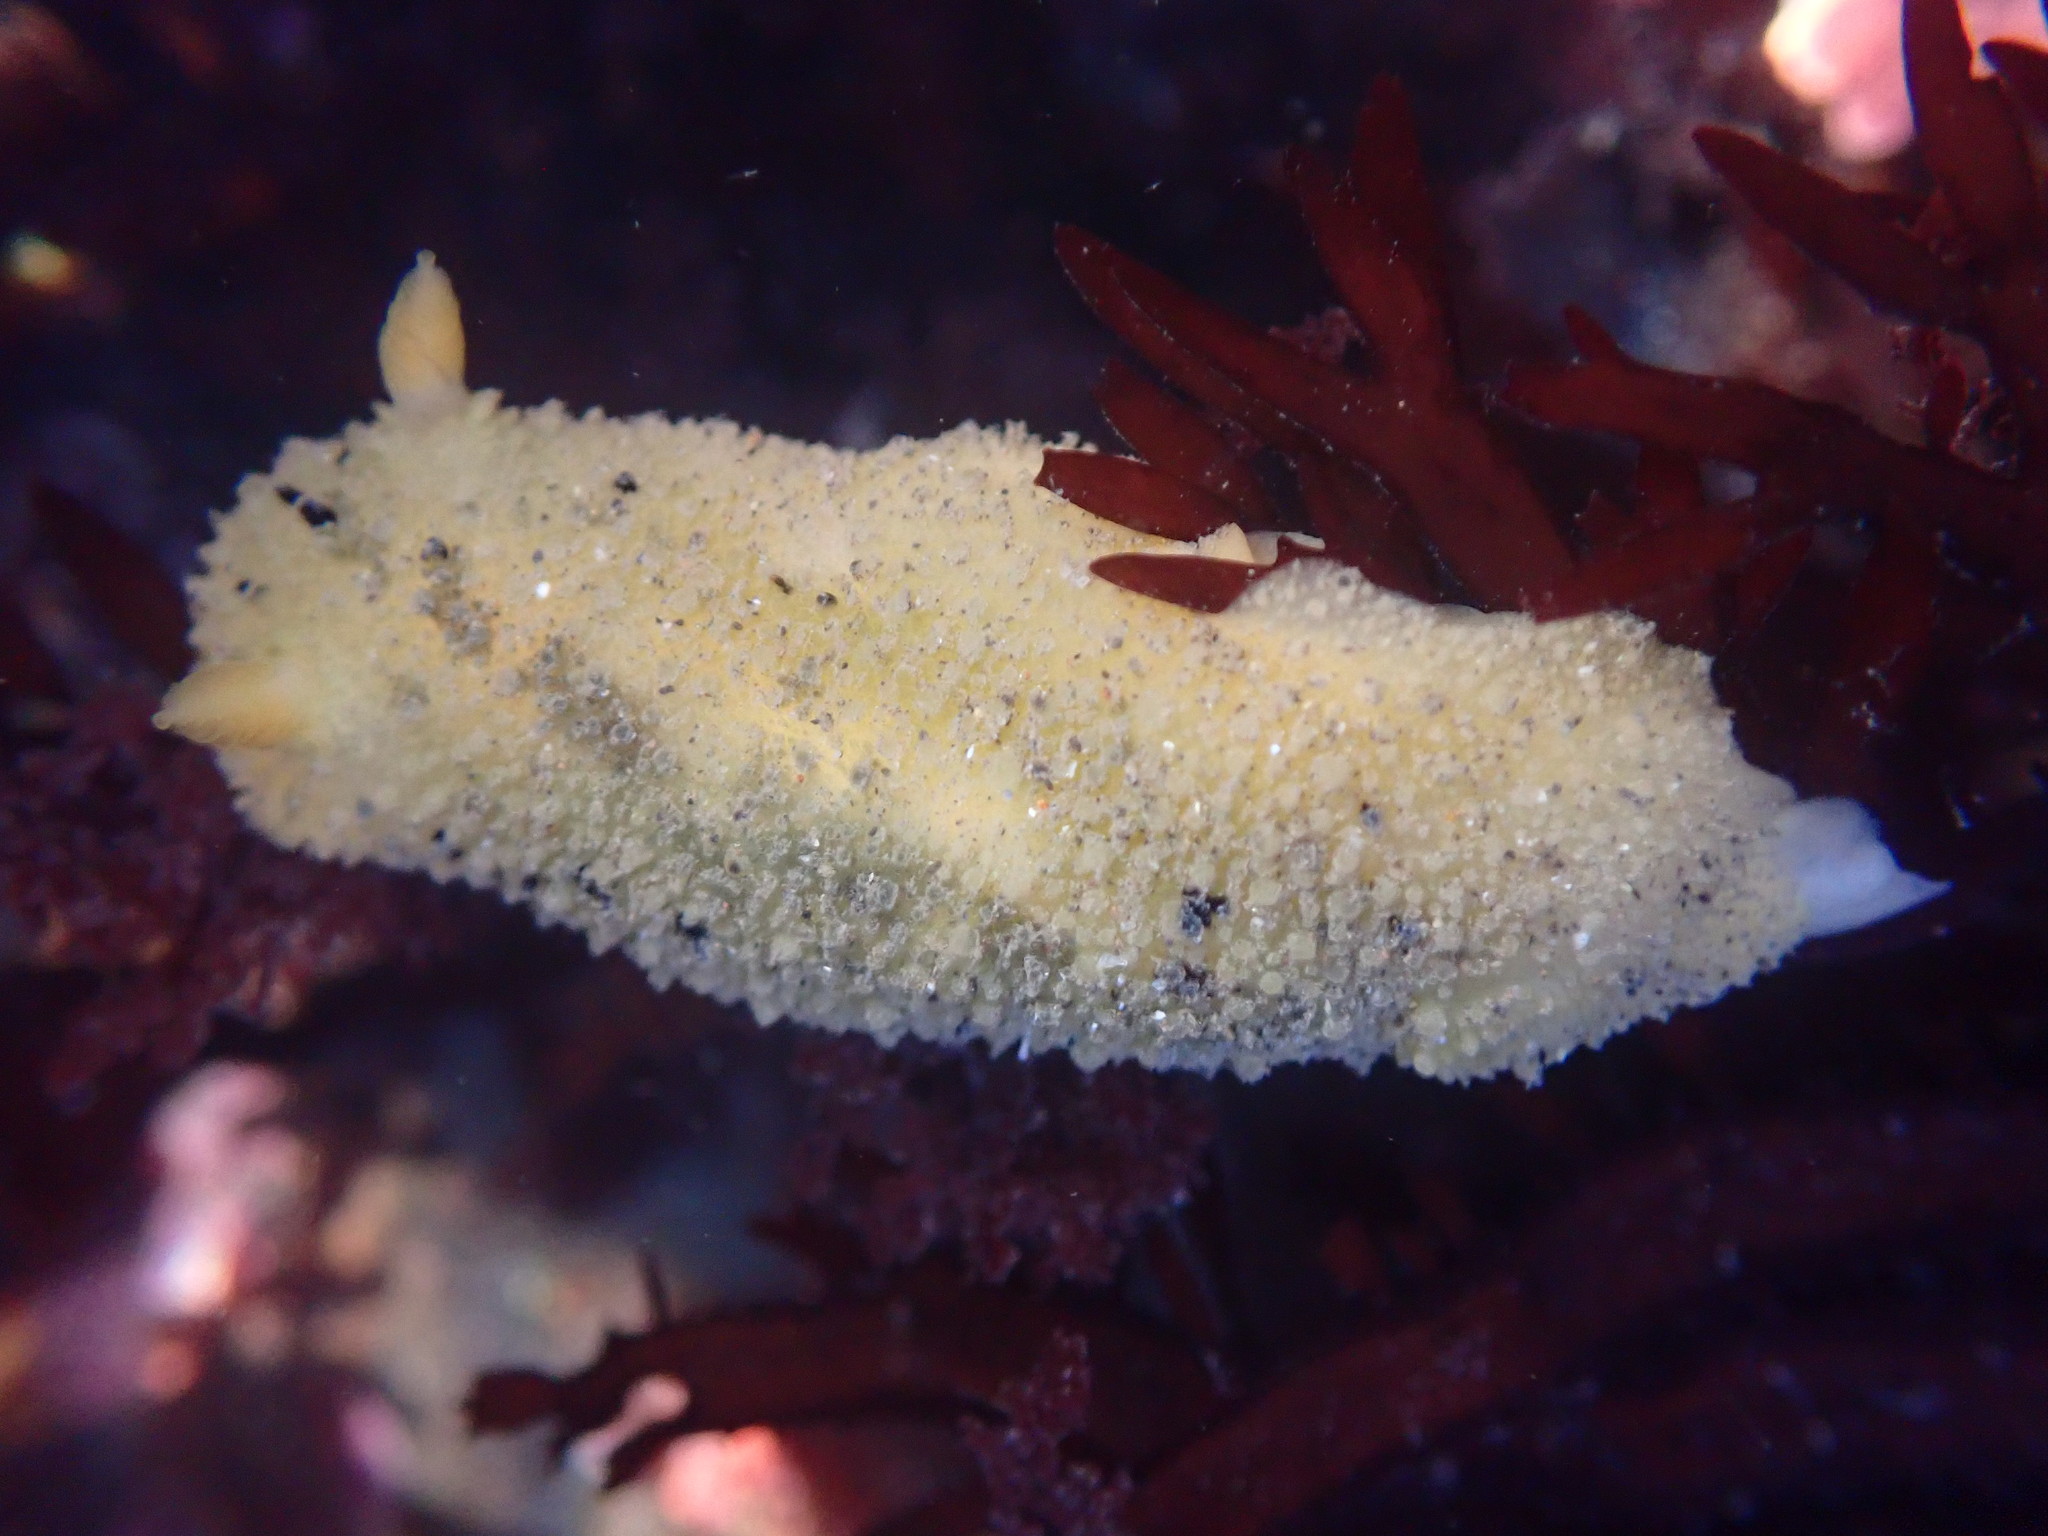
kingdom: Animalia
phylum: Mollusca
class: Gastropoda
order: Nudibranchia
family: Dorididae
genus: Doris
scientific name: Doris montereyensis
